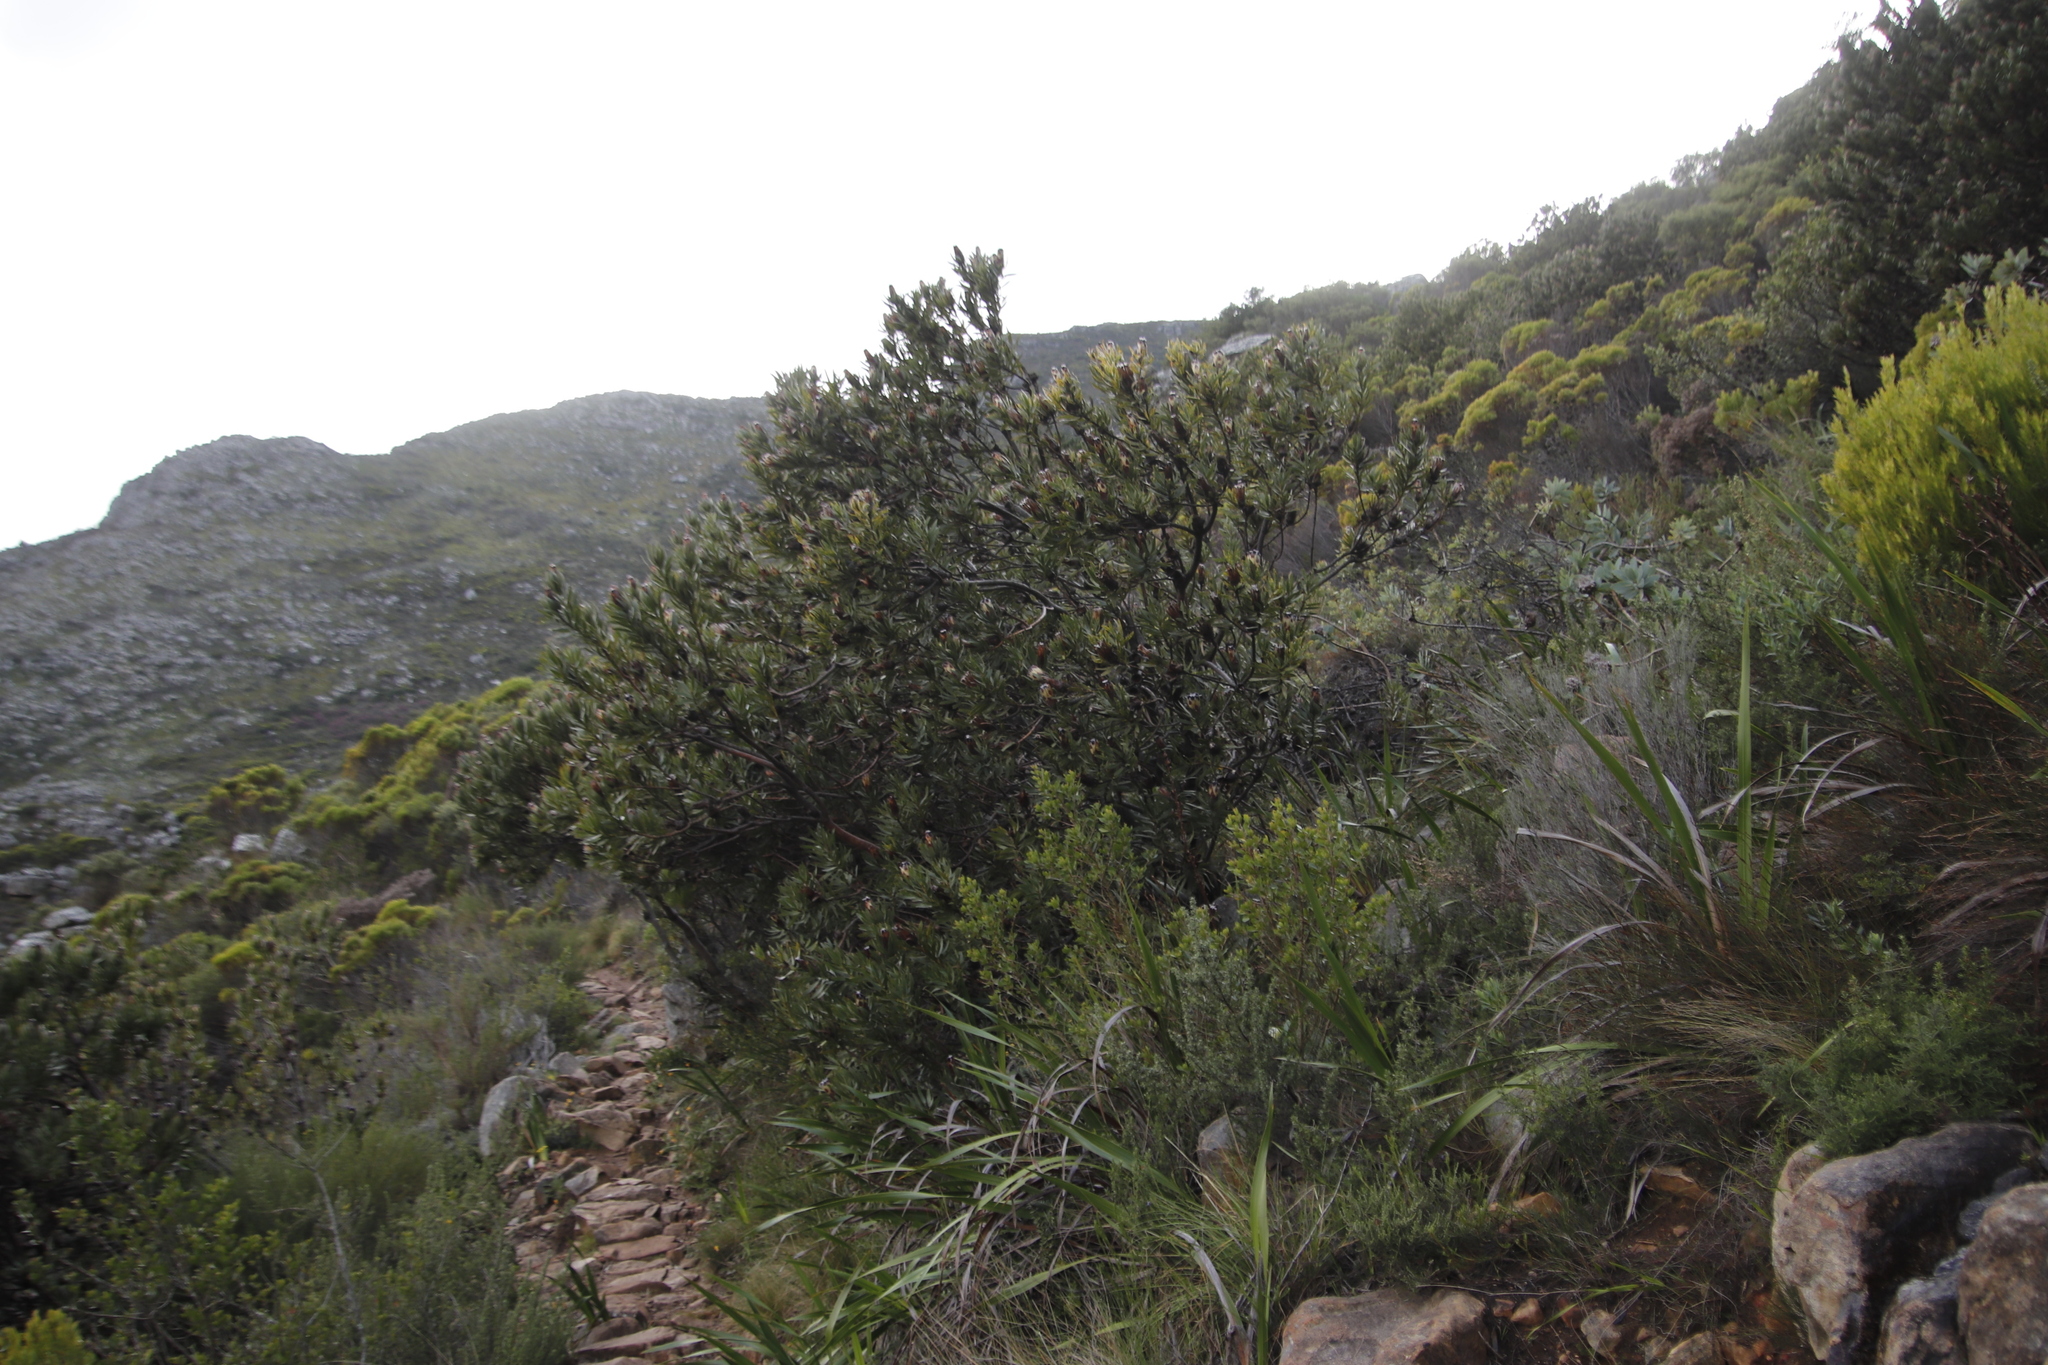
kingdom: Plantae
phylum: Tracheophyta
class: Magnoliopsida
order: Proteales
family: Proteaceae
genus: Protea
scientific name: Protea laurifolia
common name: Grey-leaf sugarbsh
